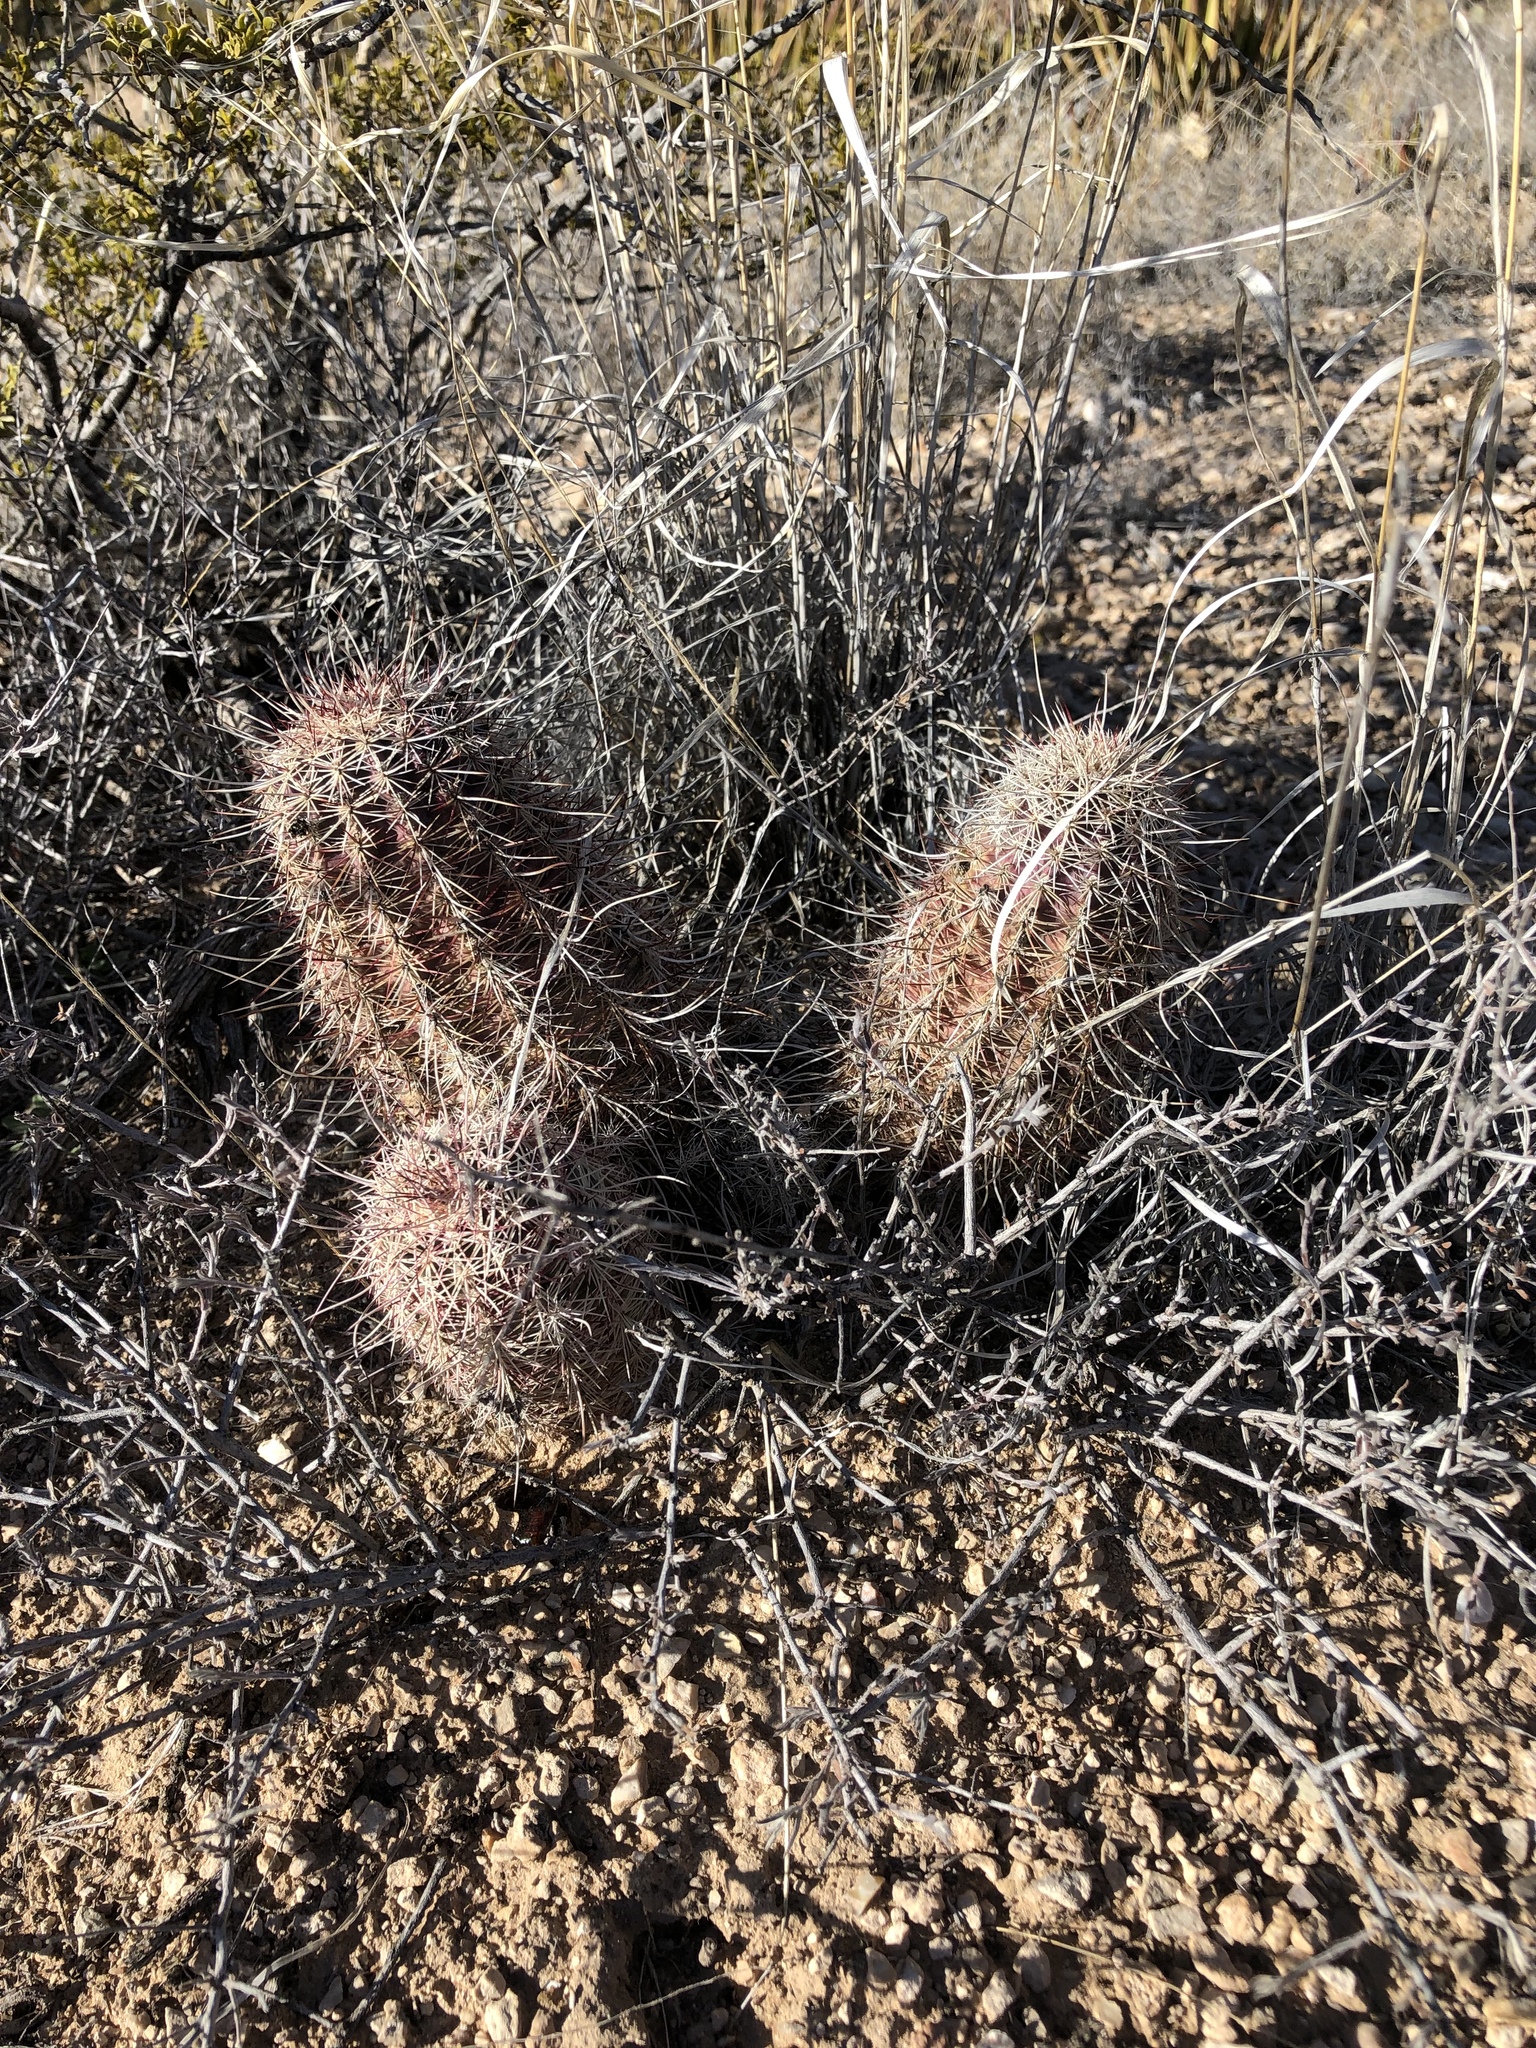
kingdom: Plantae
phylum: Tracheophyta
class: Magnoliopsida
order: Caryophyllales
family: Cactaceae
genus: Echinocereus
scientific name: Echinocereus viridiflorus
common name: Nylon hedgehog cactus
